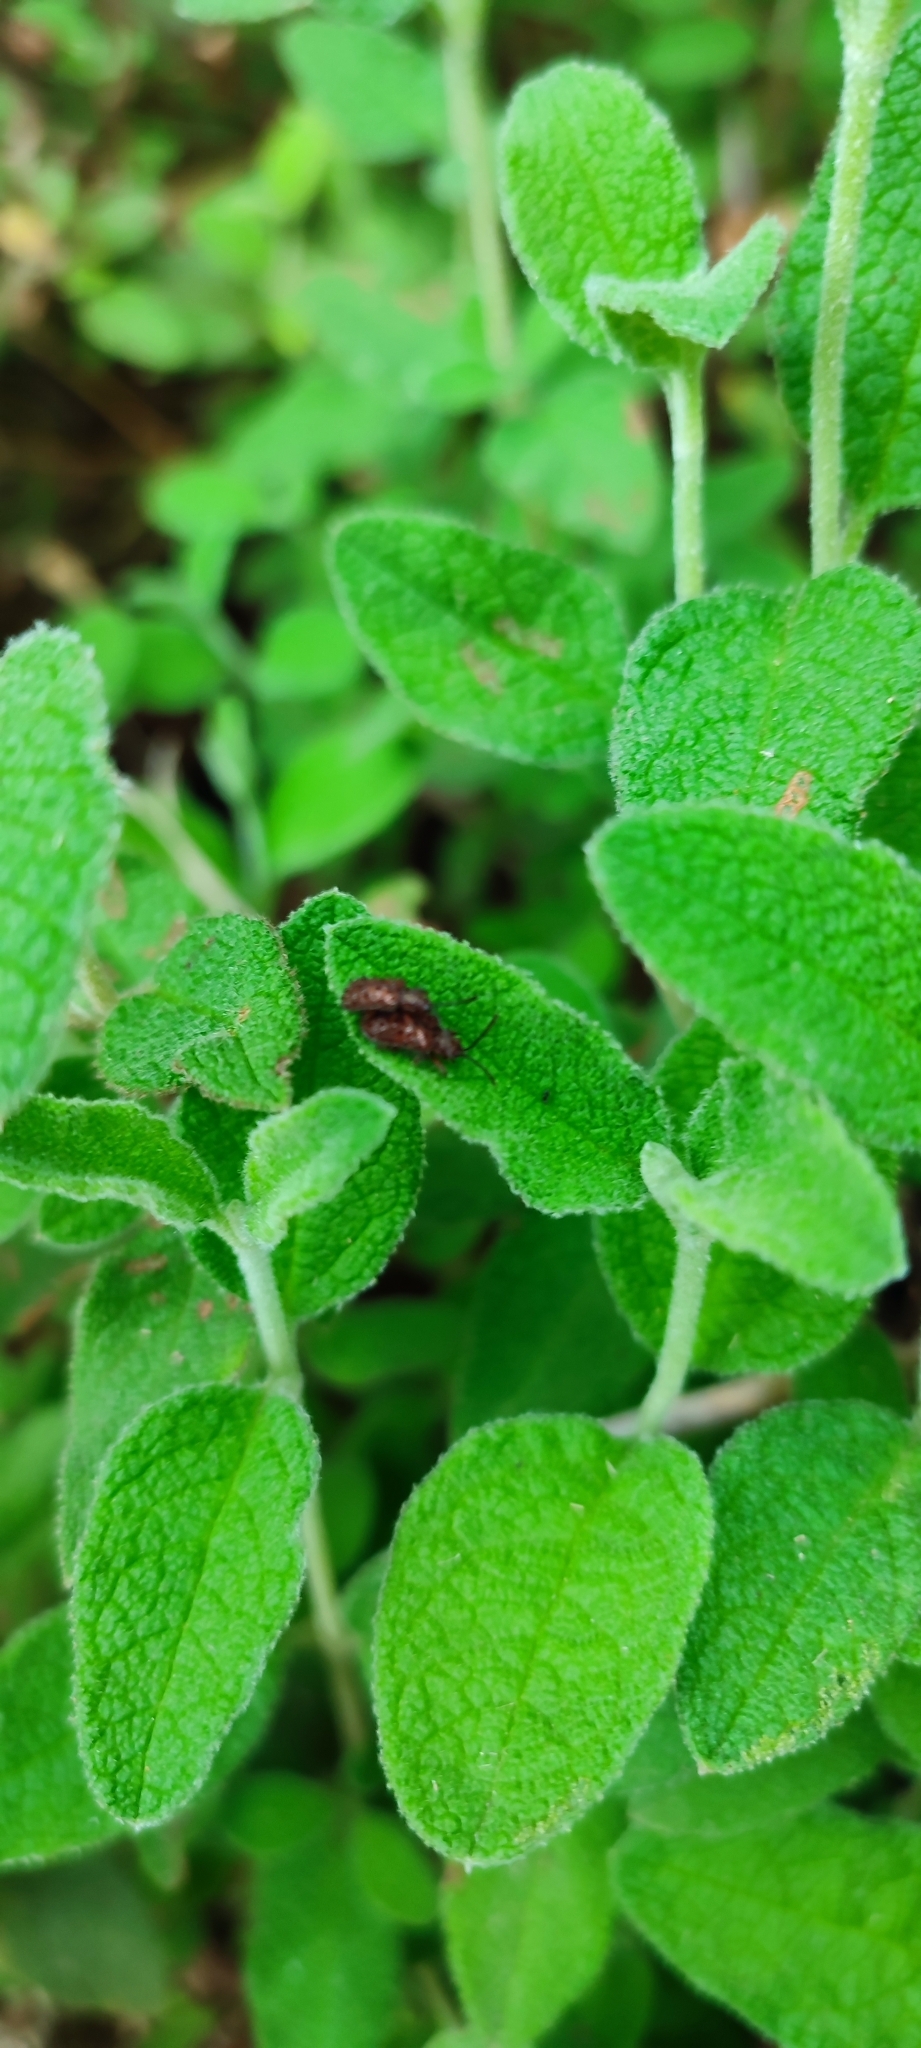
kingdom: Animalia
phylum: Arthropoda
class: Insecta
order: Coleoptera
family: Chrysomelidae
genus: Dicladispa
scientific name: Dicladispa testacea
